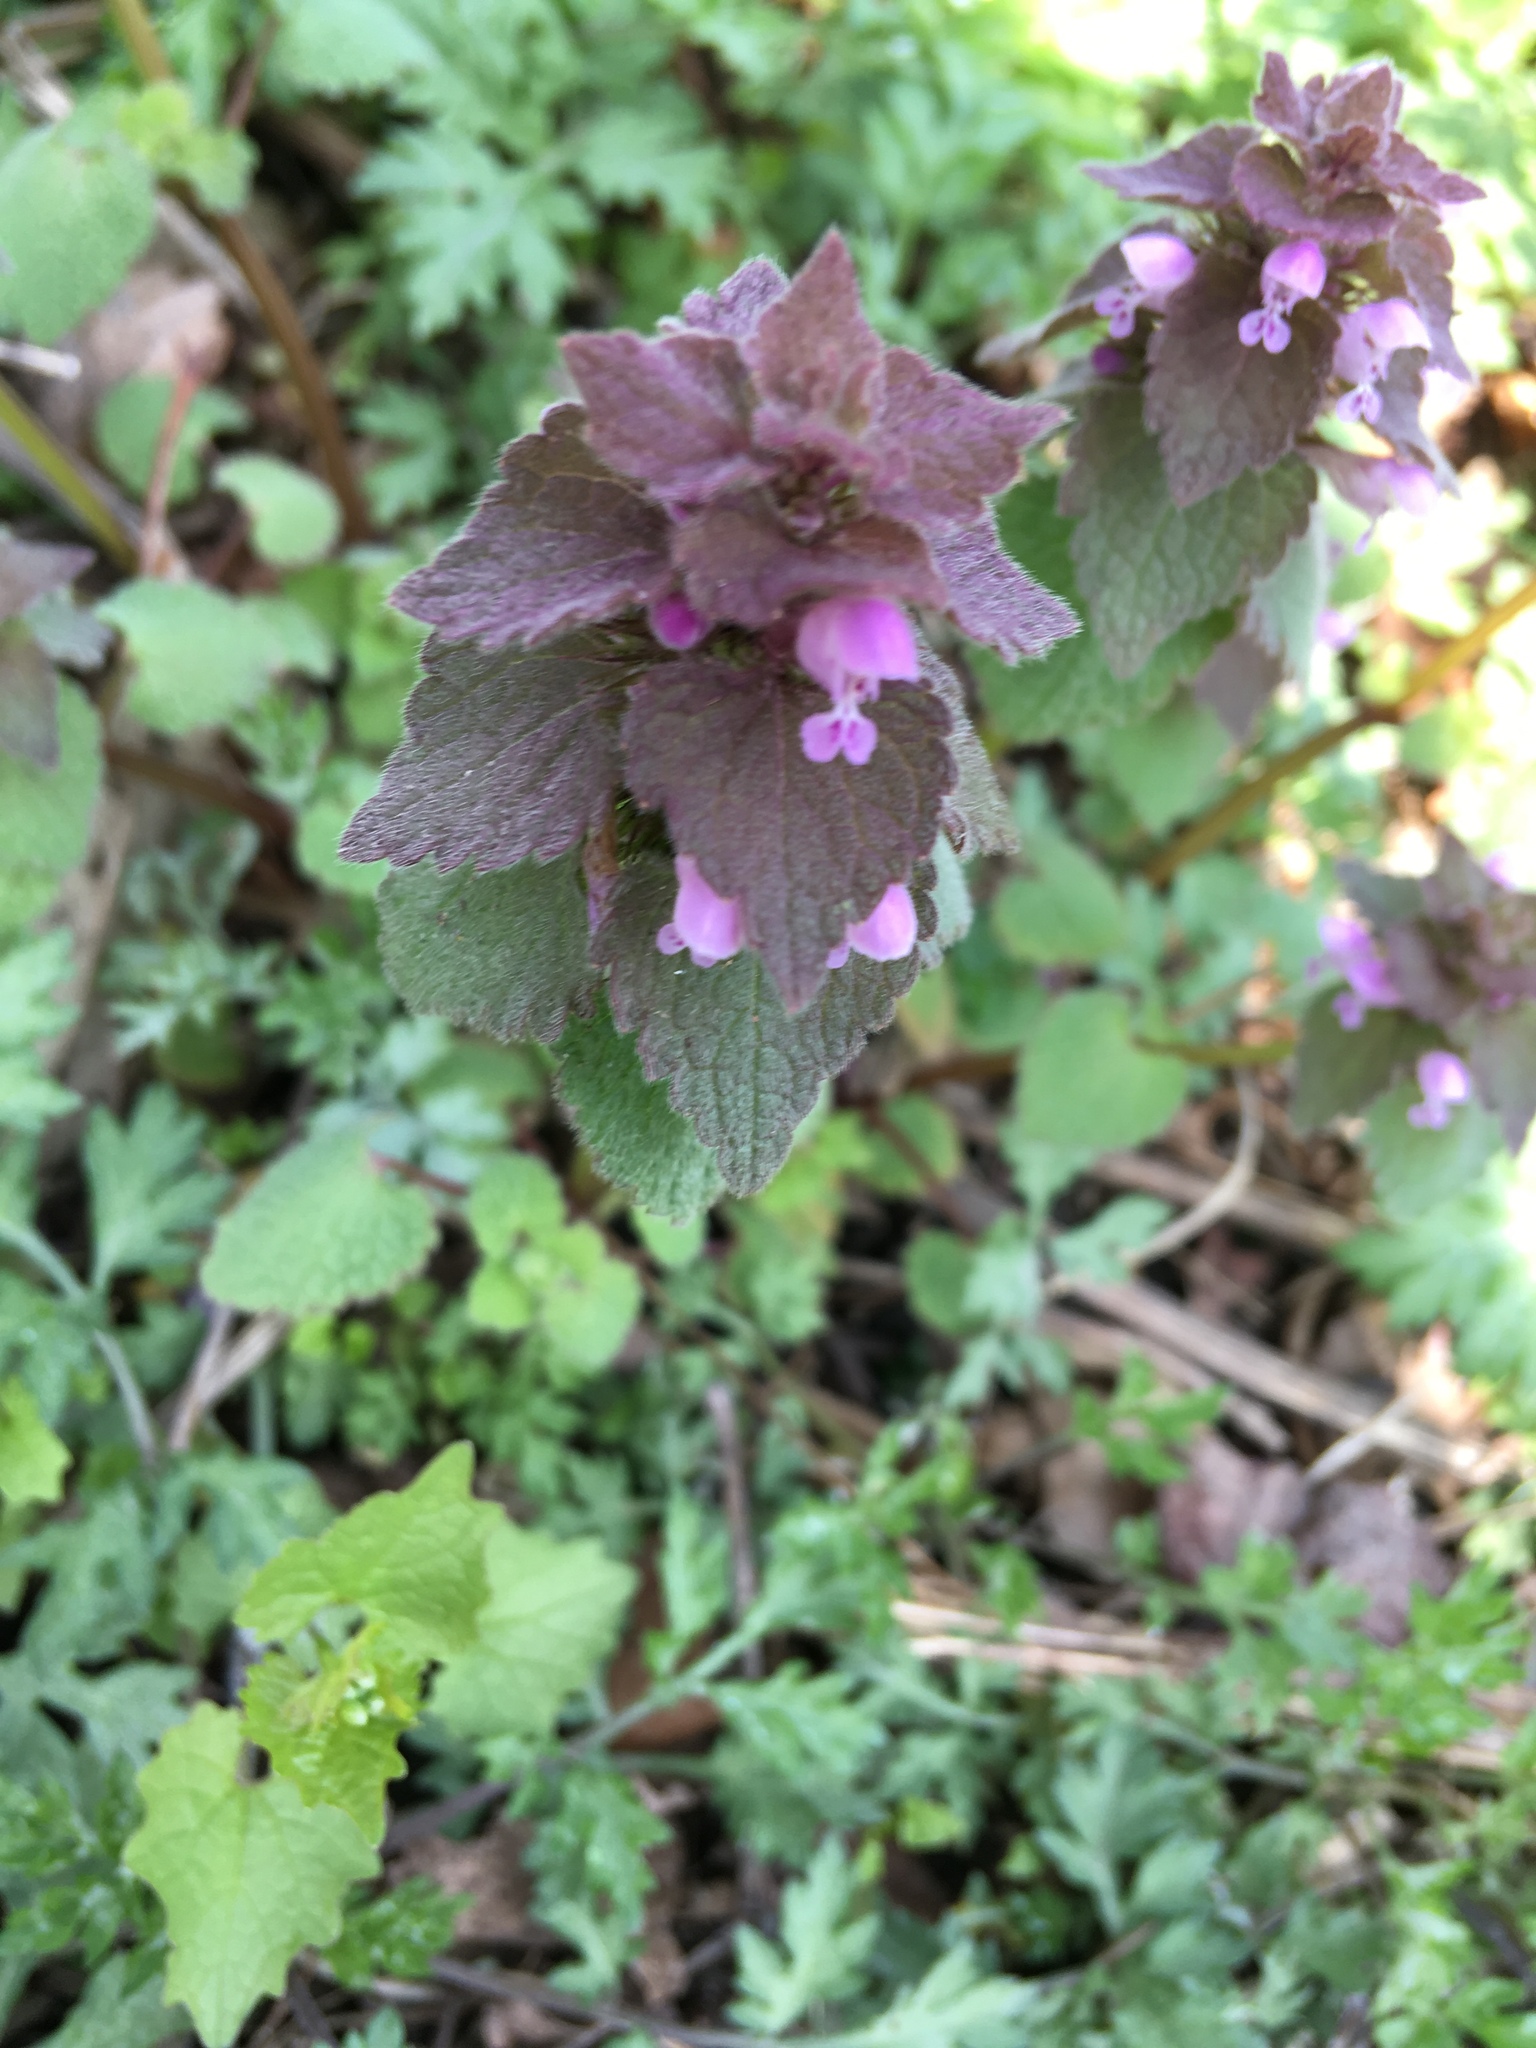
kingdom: Plantae
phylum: Tracheophyta
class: Magnoliopsida
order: Lamiales
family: Lamiaceae
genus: Lamium
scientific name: Lamium purpureum
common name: Red dead-nettle
